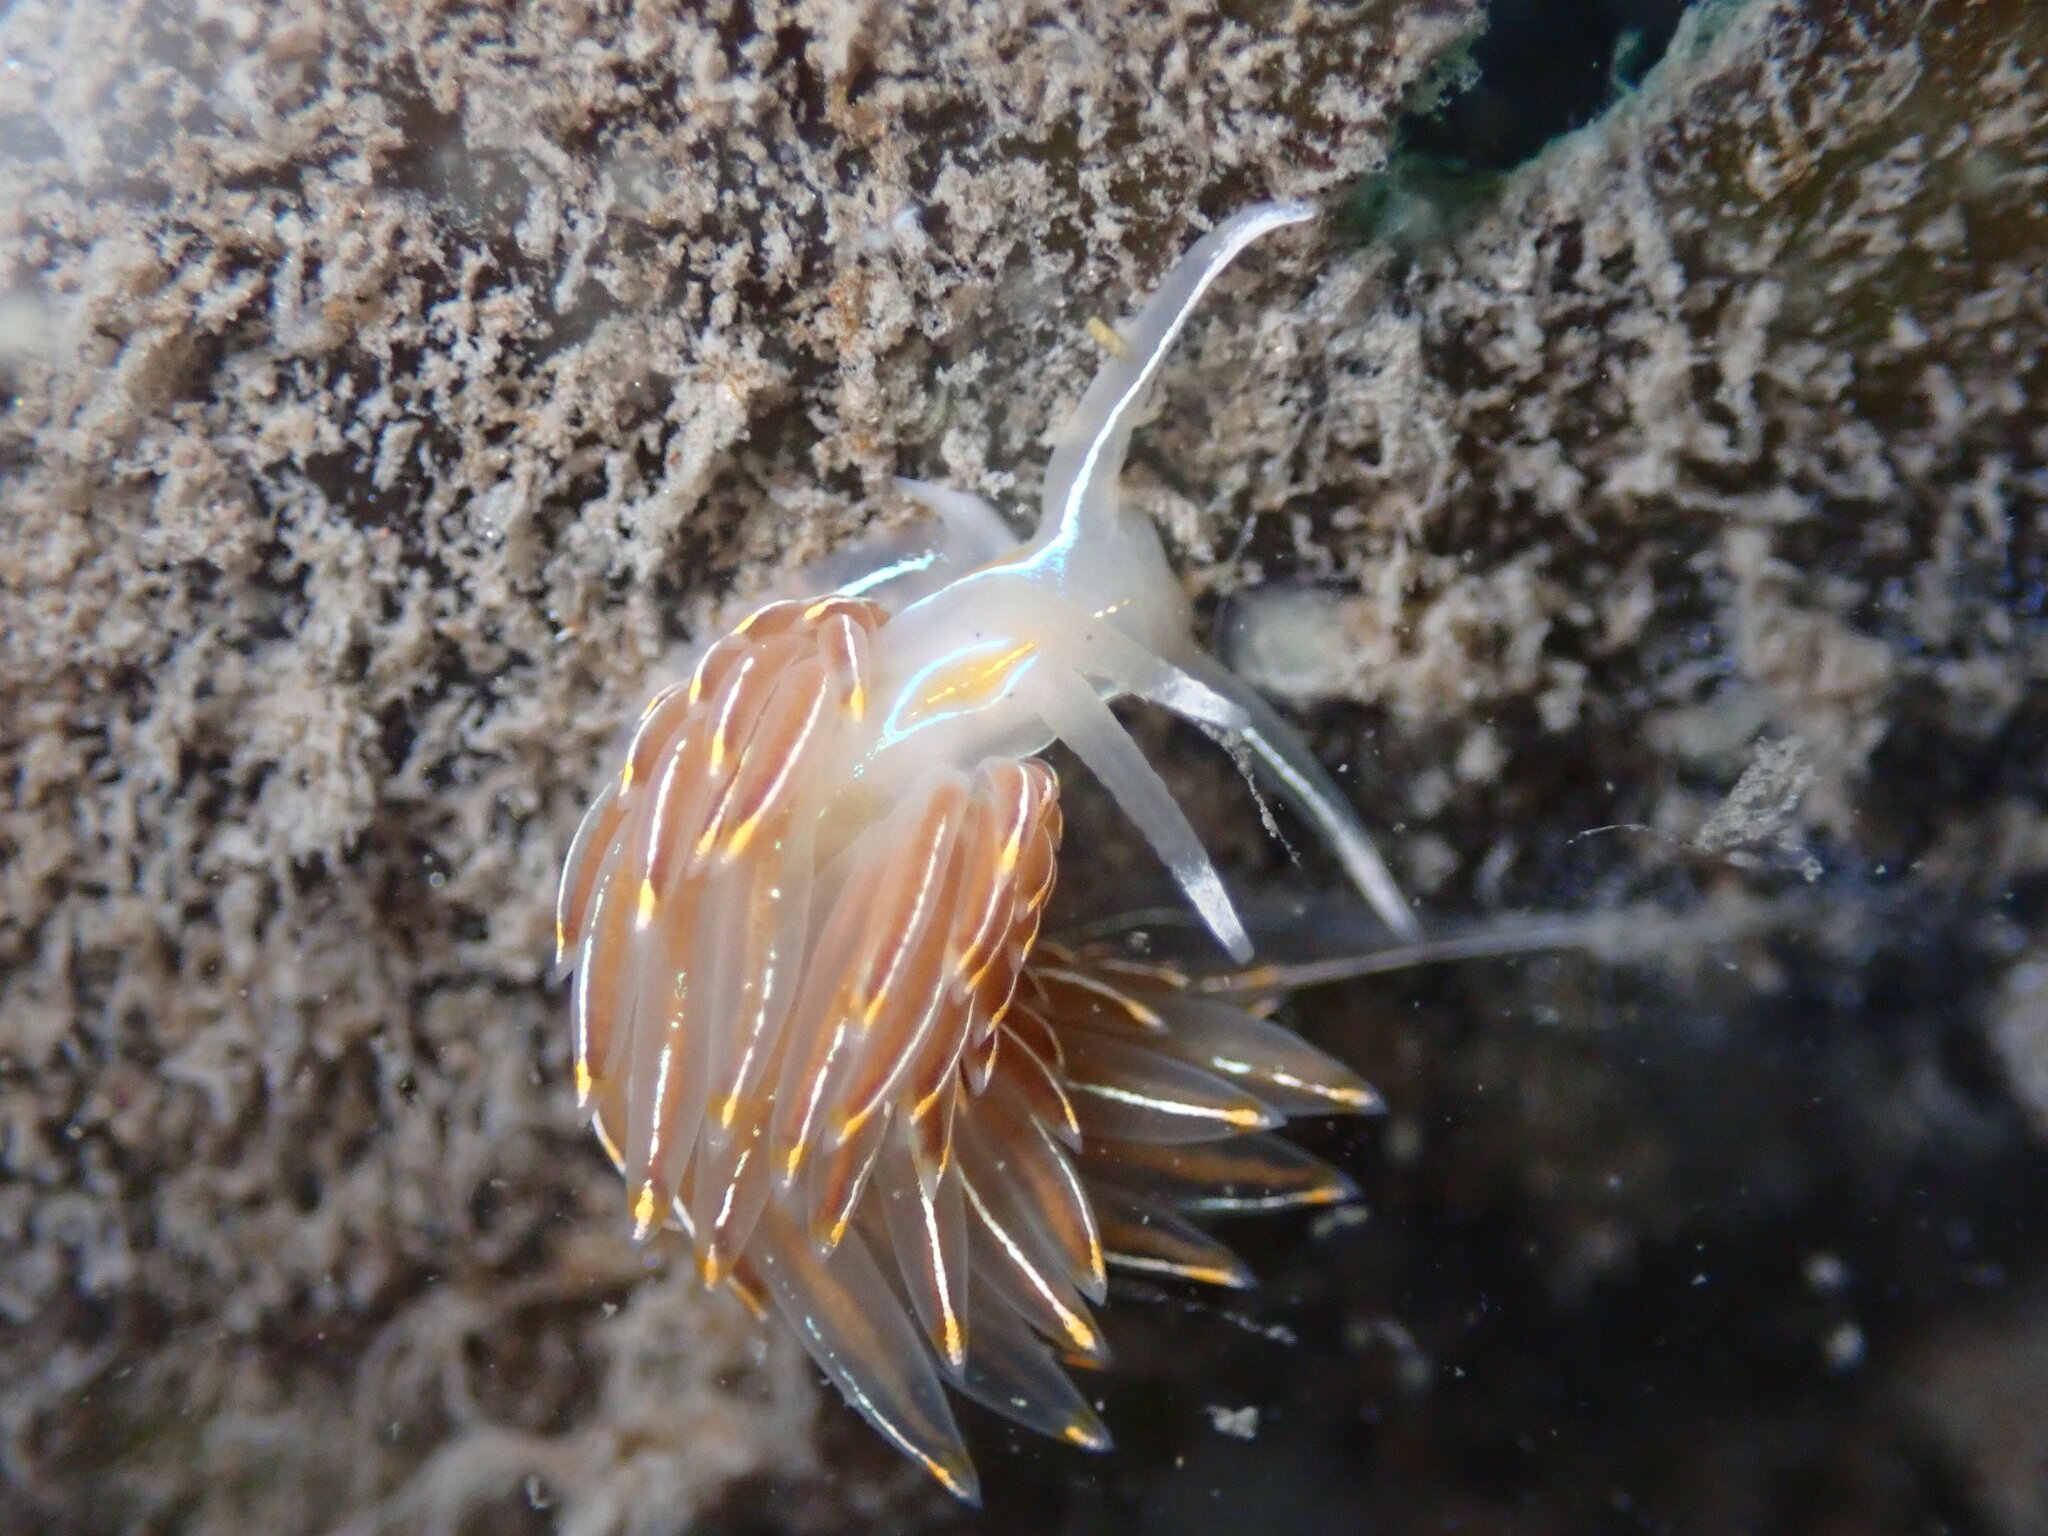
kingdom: Animalia
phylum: Mollusca
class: Gastropoda
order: Nudibranchia
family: Myrrhinidae
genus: Hermissenda
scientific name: Hermissenda crassicornis
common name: Hermissenda
